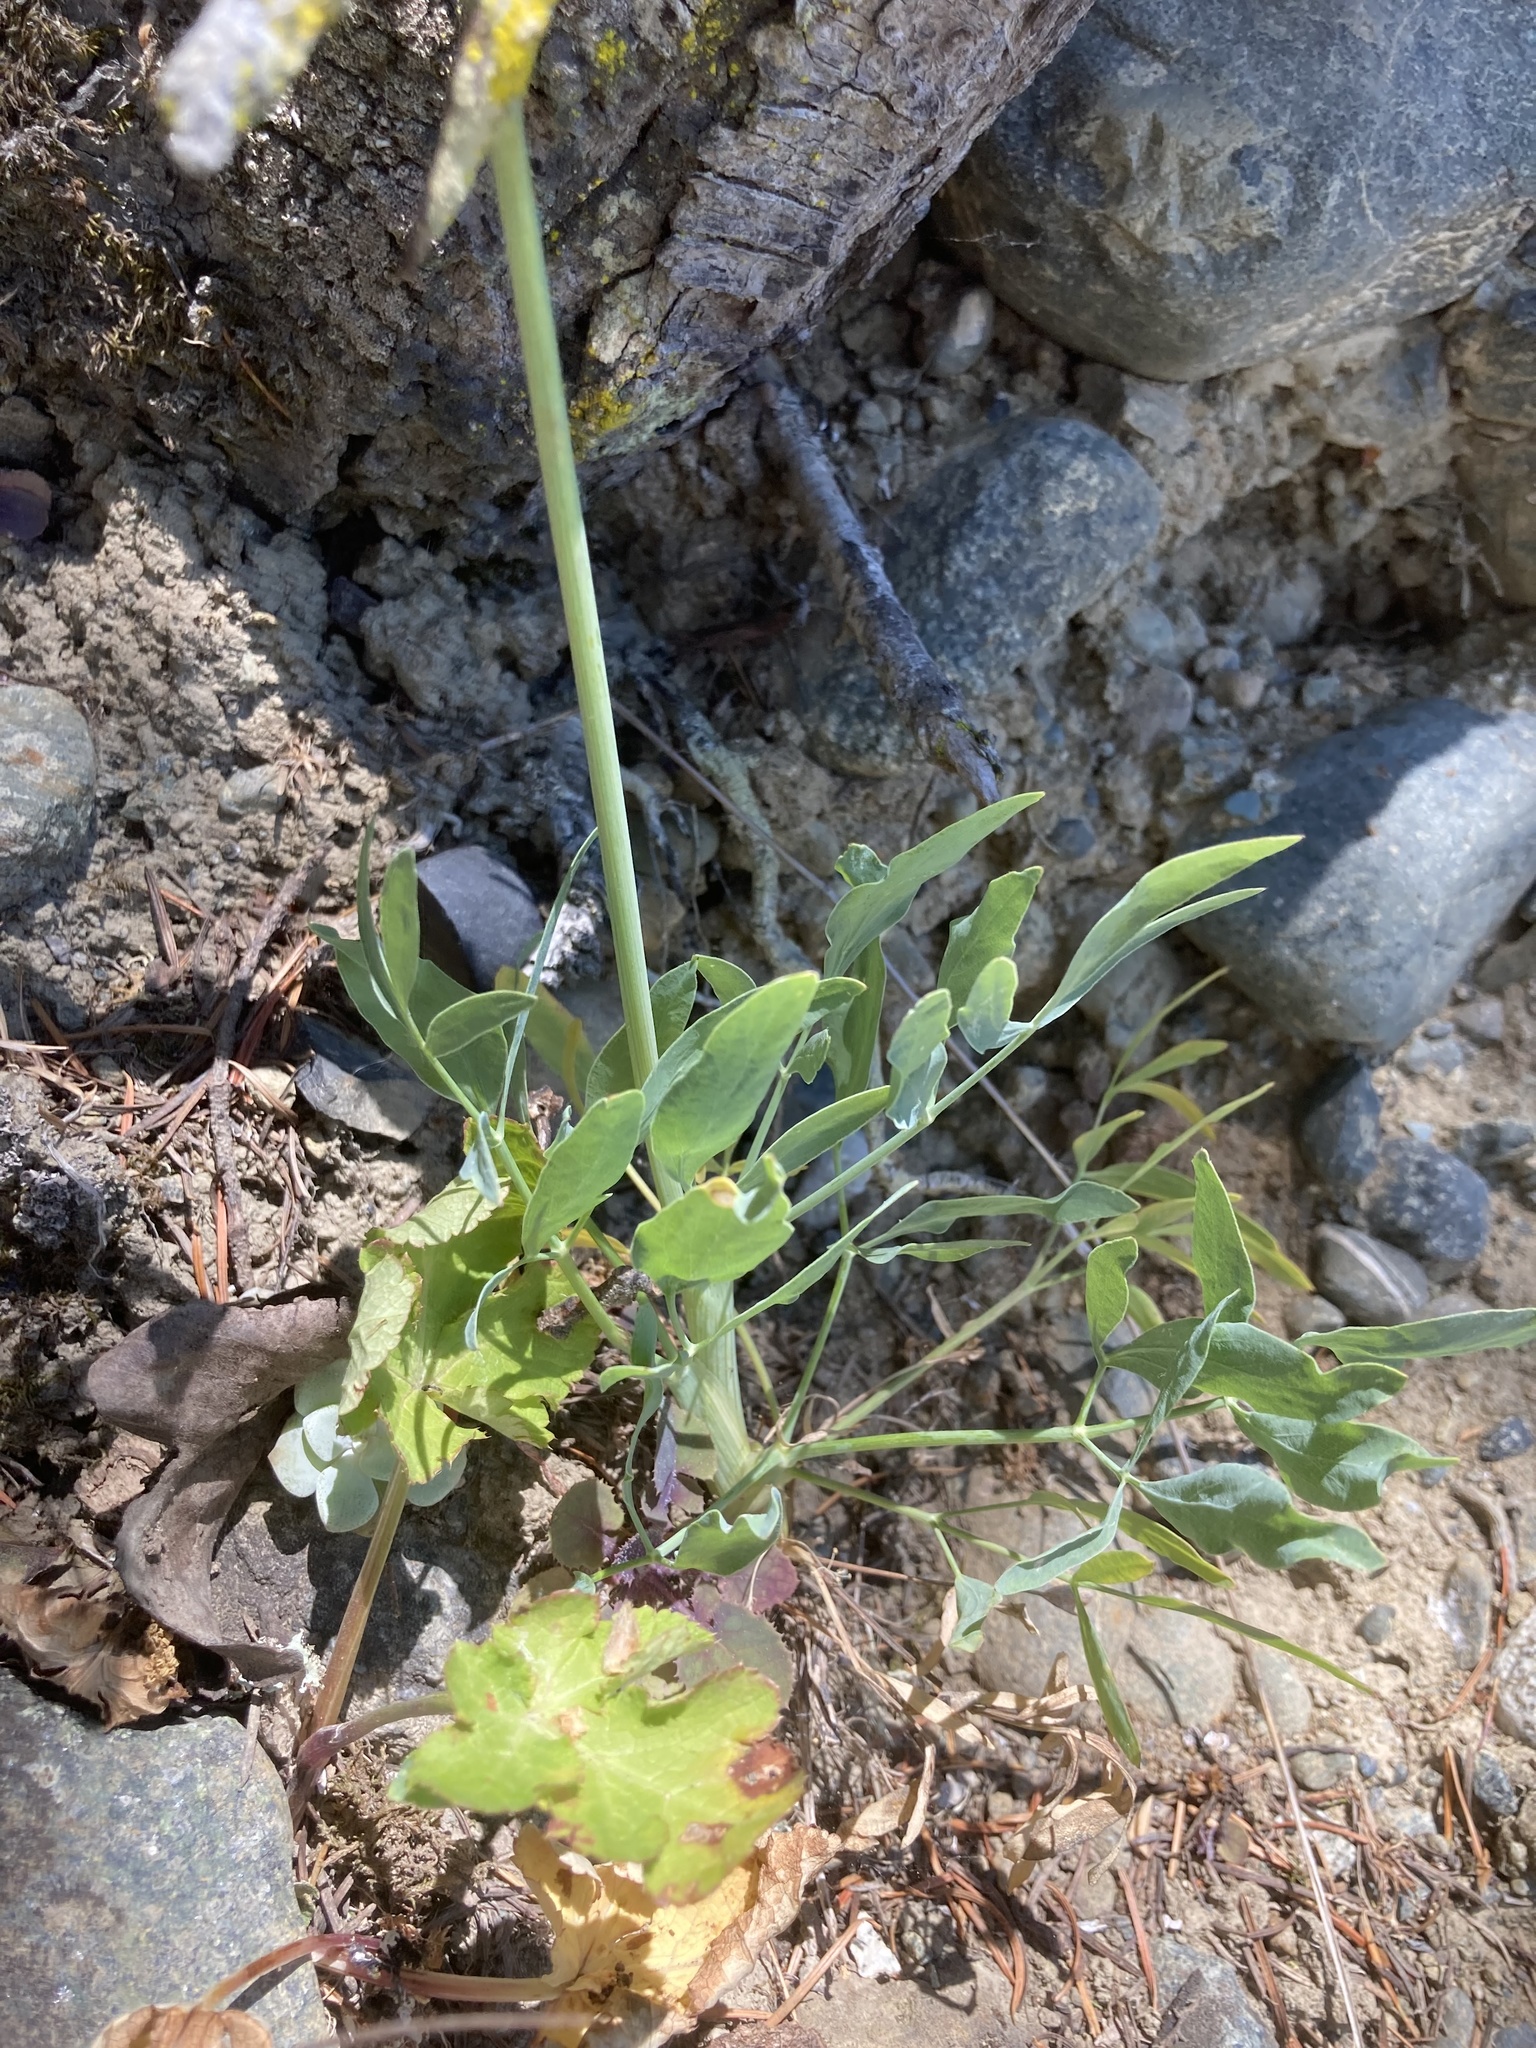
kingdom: Plantae
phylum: Tracheophyta
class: Magnoliopsida
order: Apiales
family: Apiaceae
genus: Lomatium
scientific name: Lomatium nudicaule
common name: Pestle lomatium
